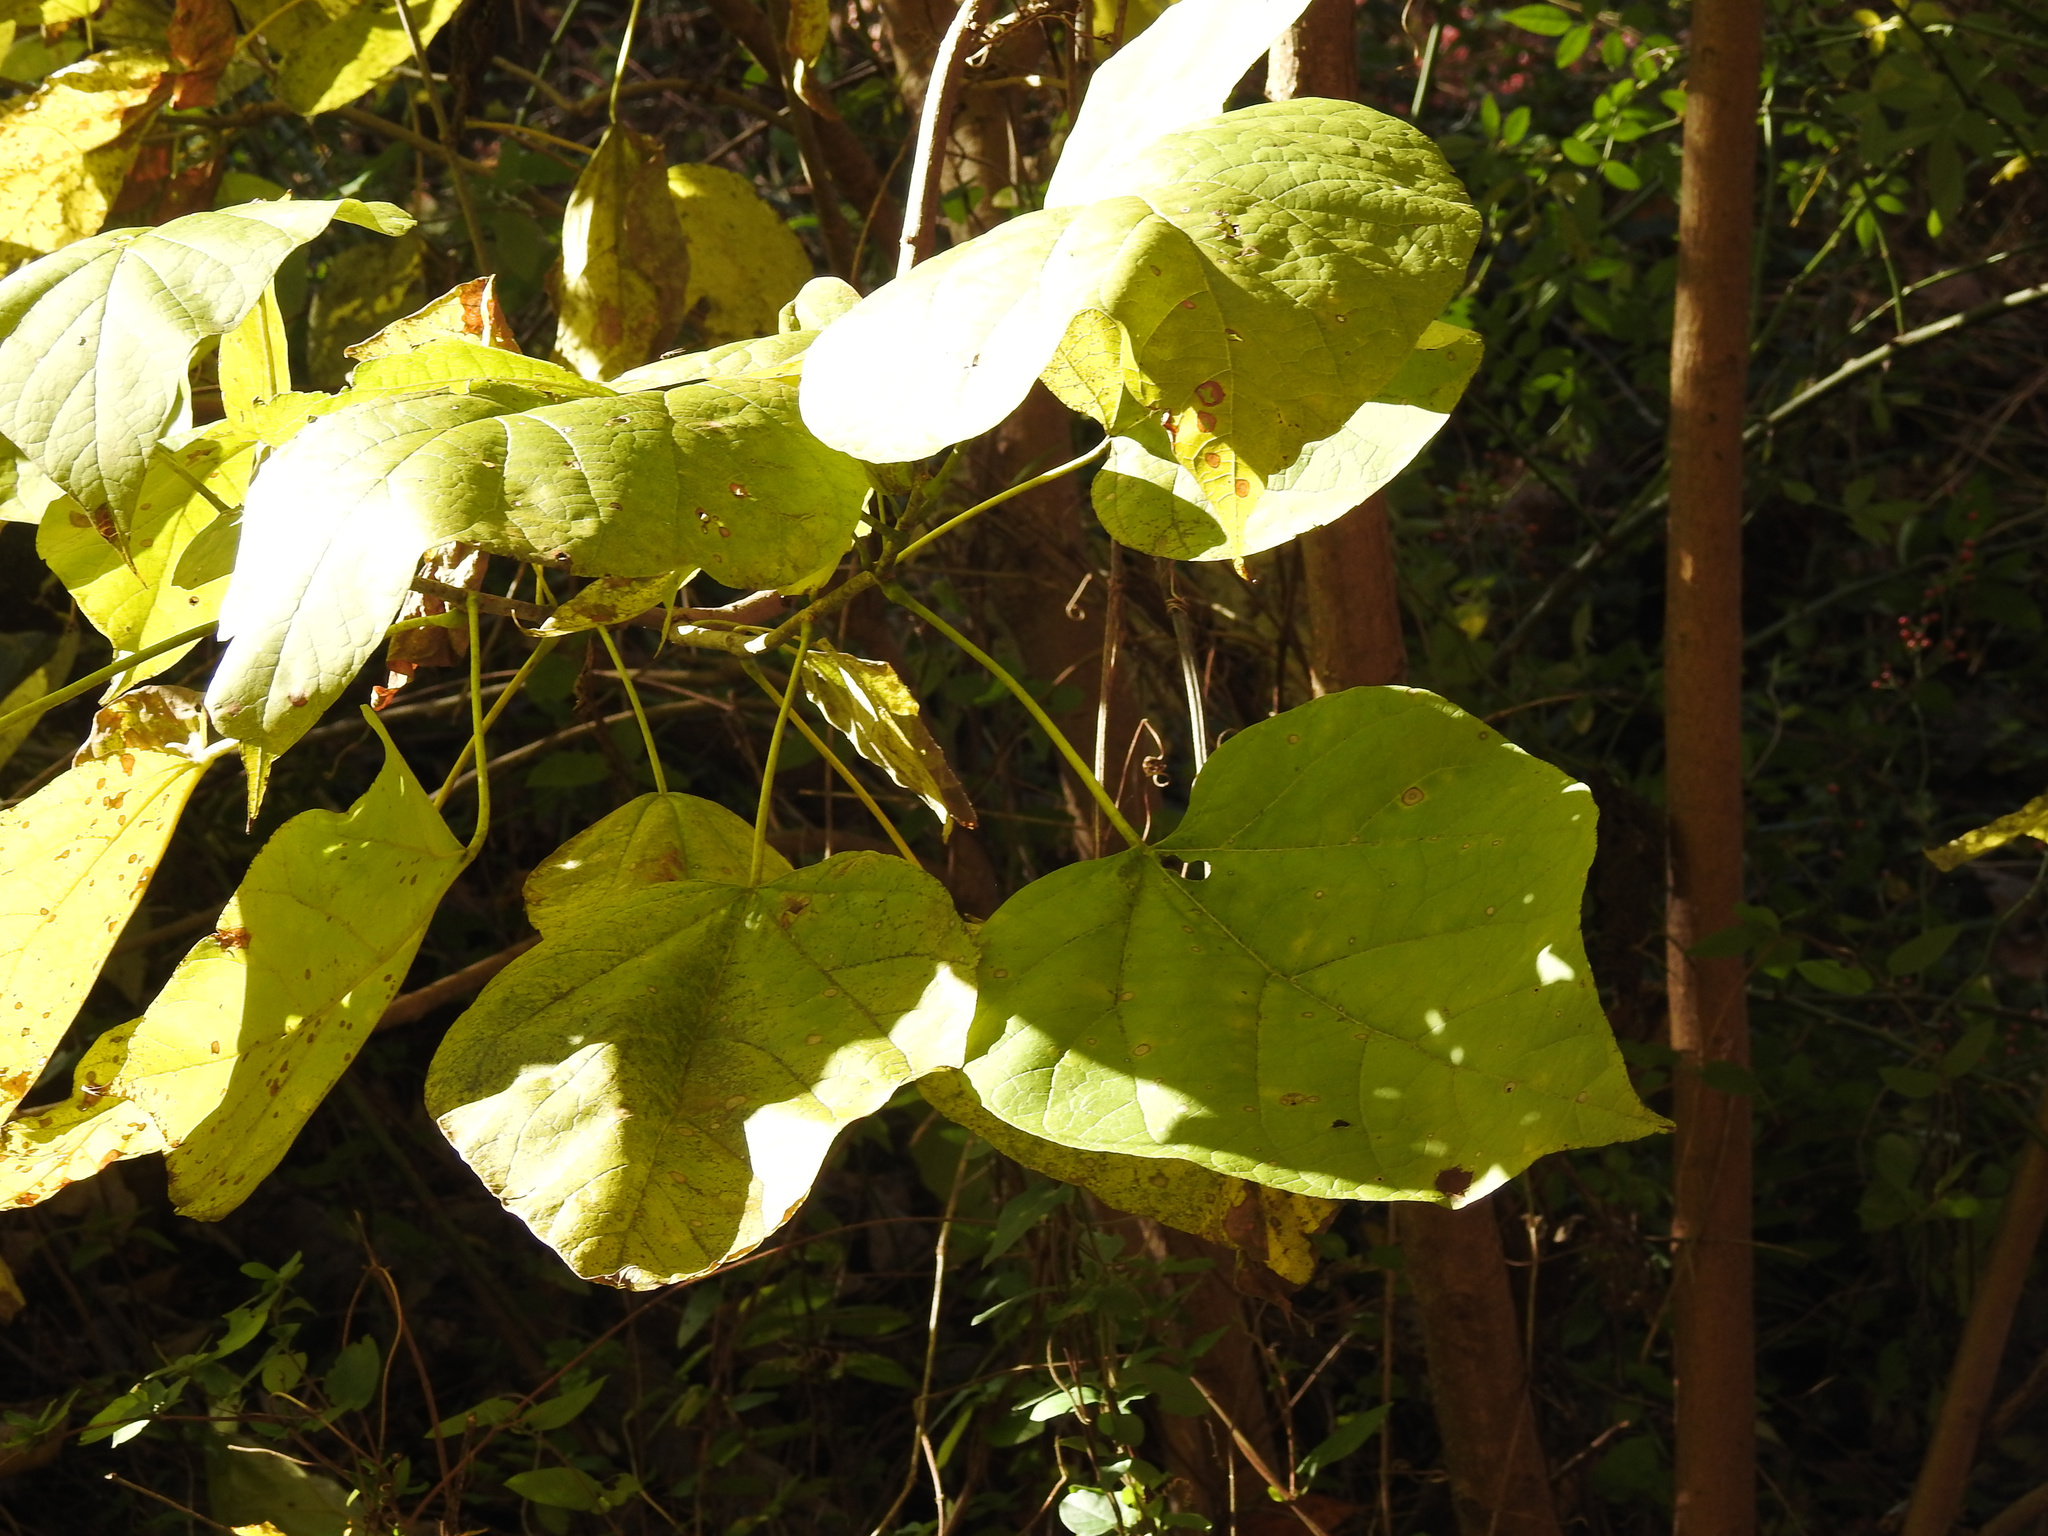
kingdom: Plantae
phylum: Tracheophyta
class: Magnoliopsida
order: Lamiales
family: Bignoniaceae
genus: Catalpa
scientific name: Catalpa speciosa
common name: Northern catalpa
